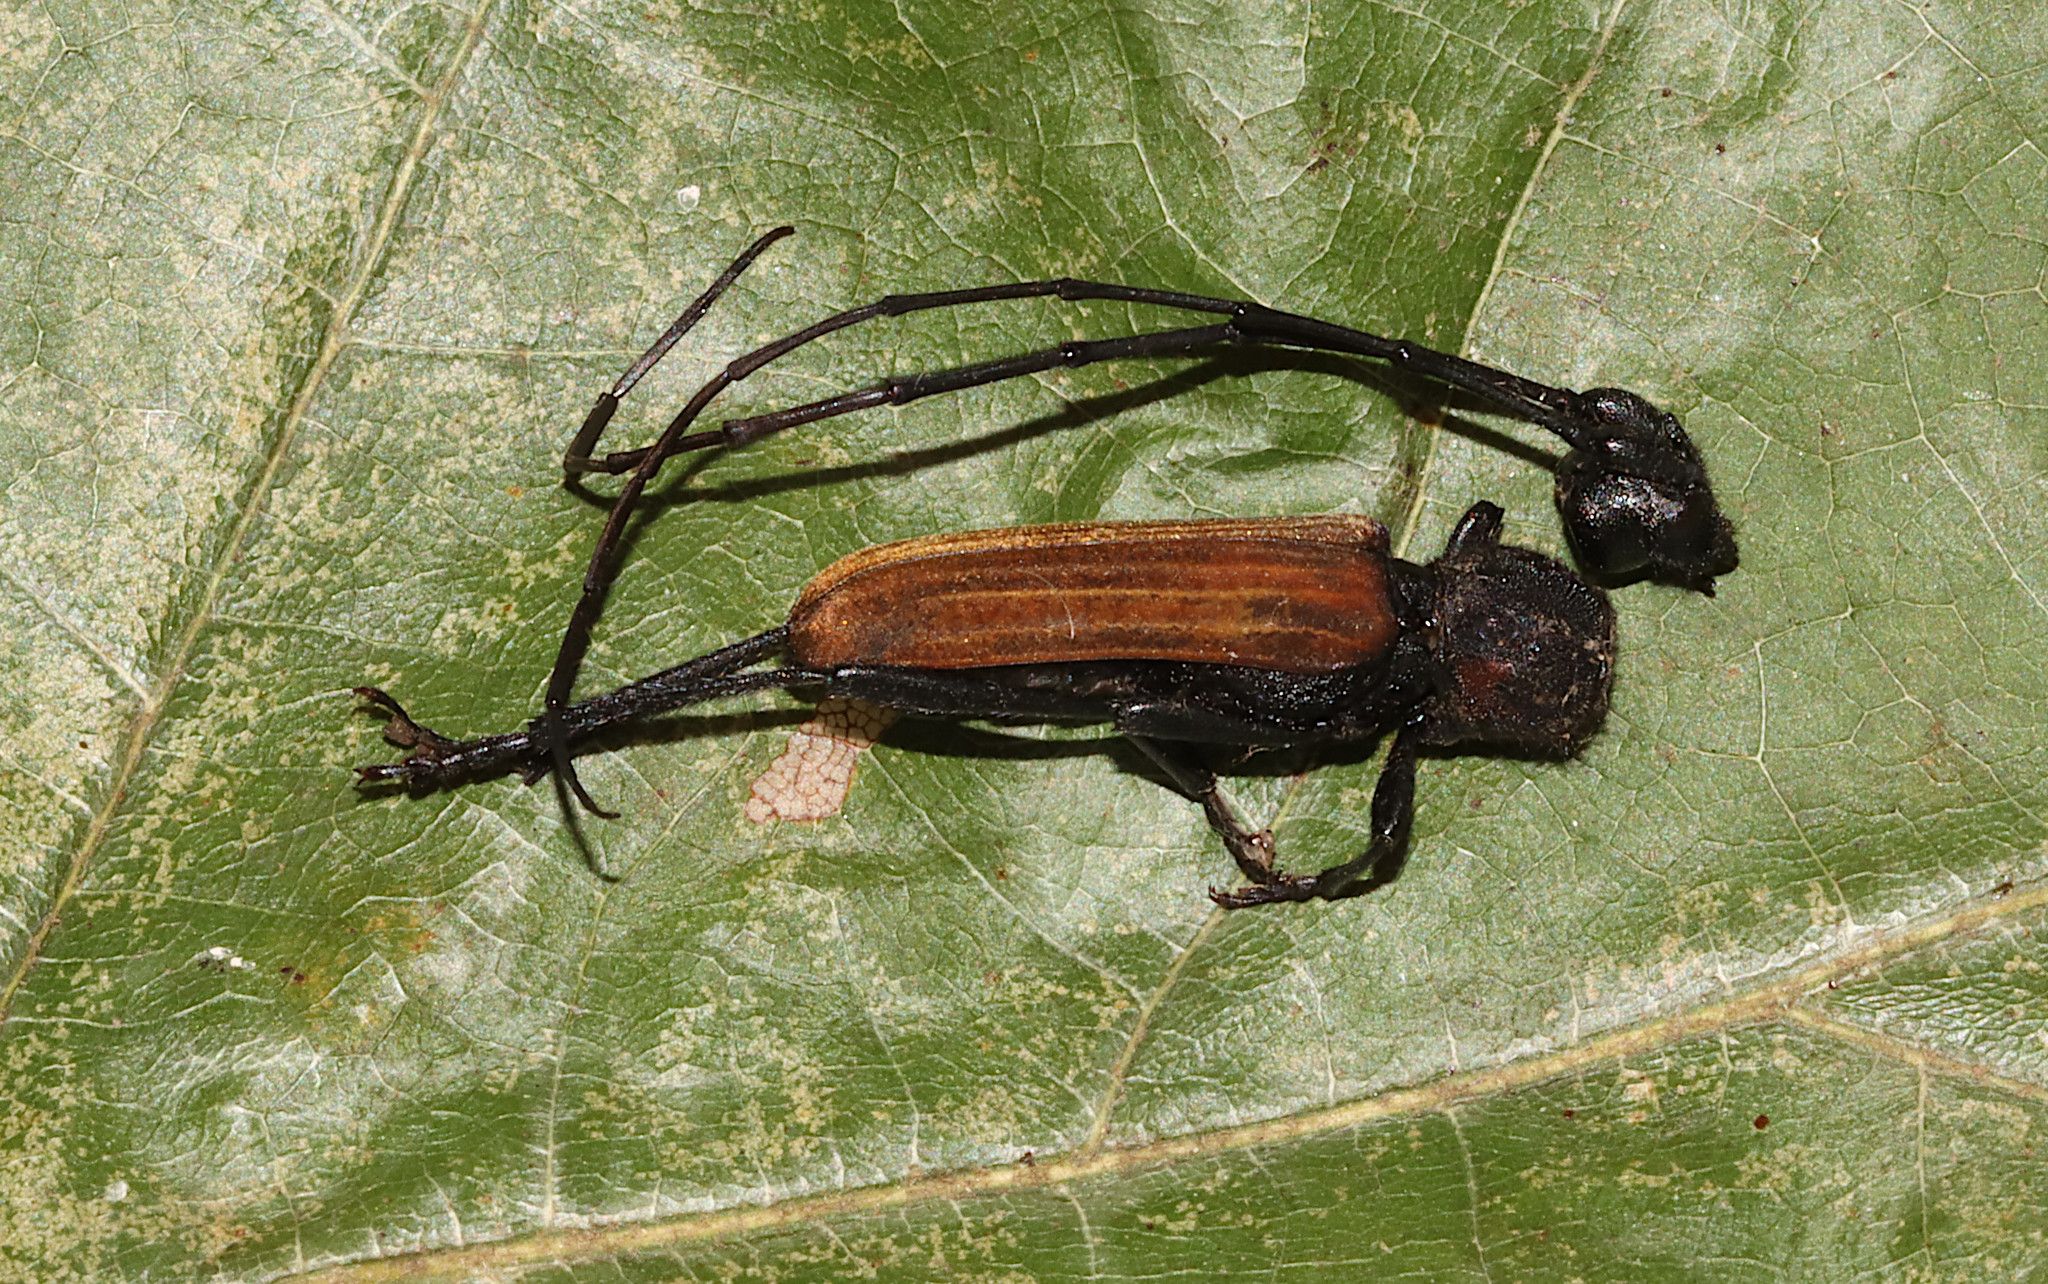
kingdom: Animalia
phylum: Arthropoda
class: Insecta
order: Coleoptera
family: Cerambycidae
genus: Tragidion
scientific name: Tragidion coquus
